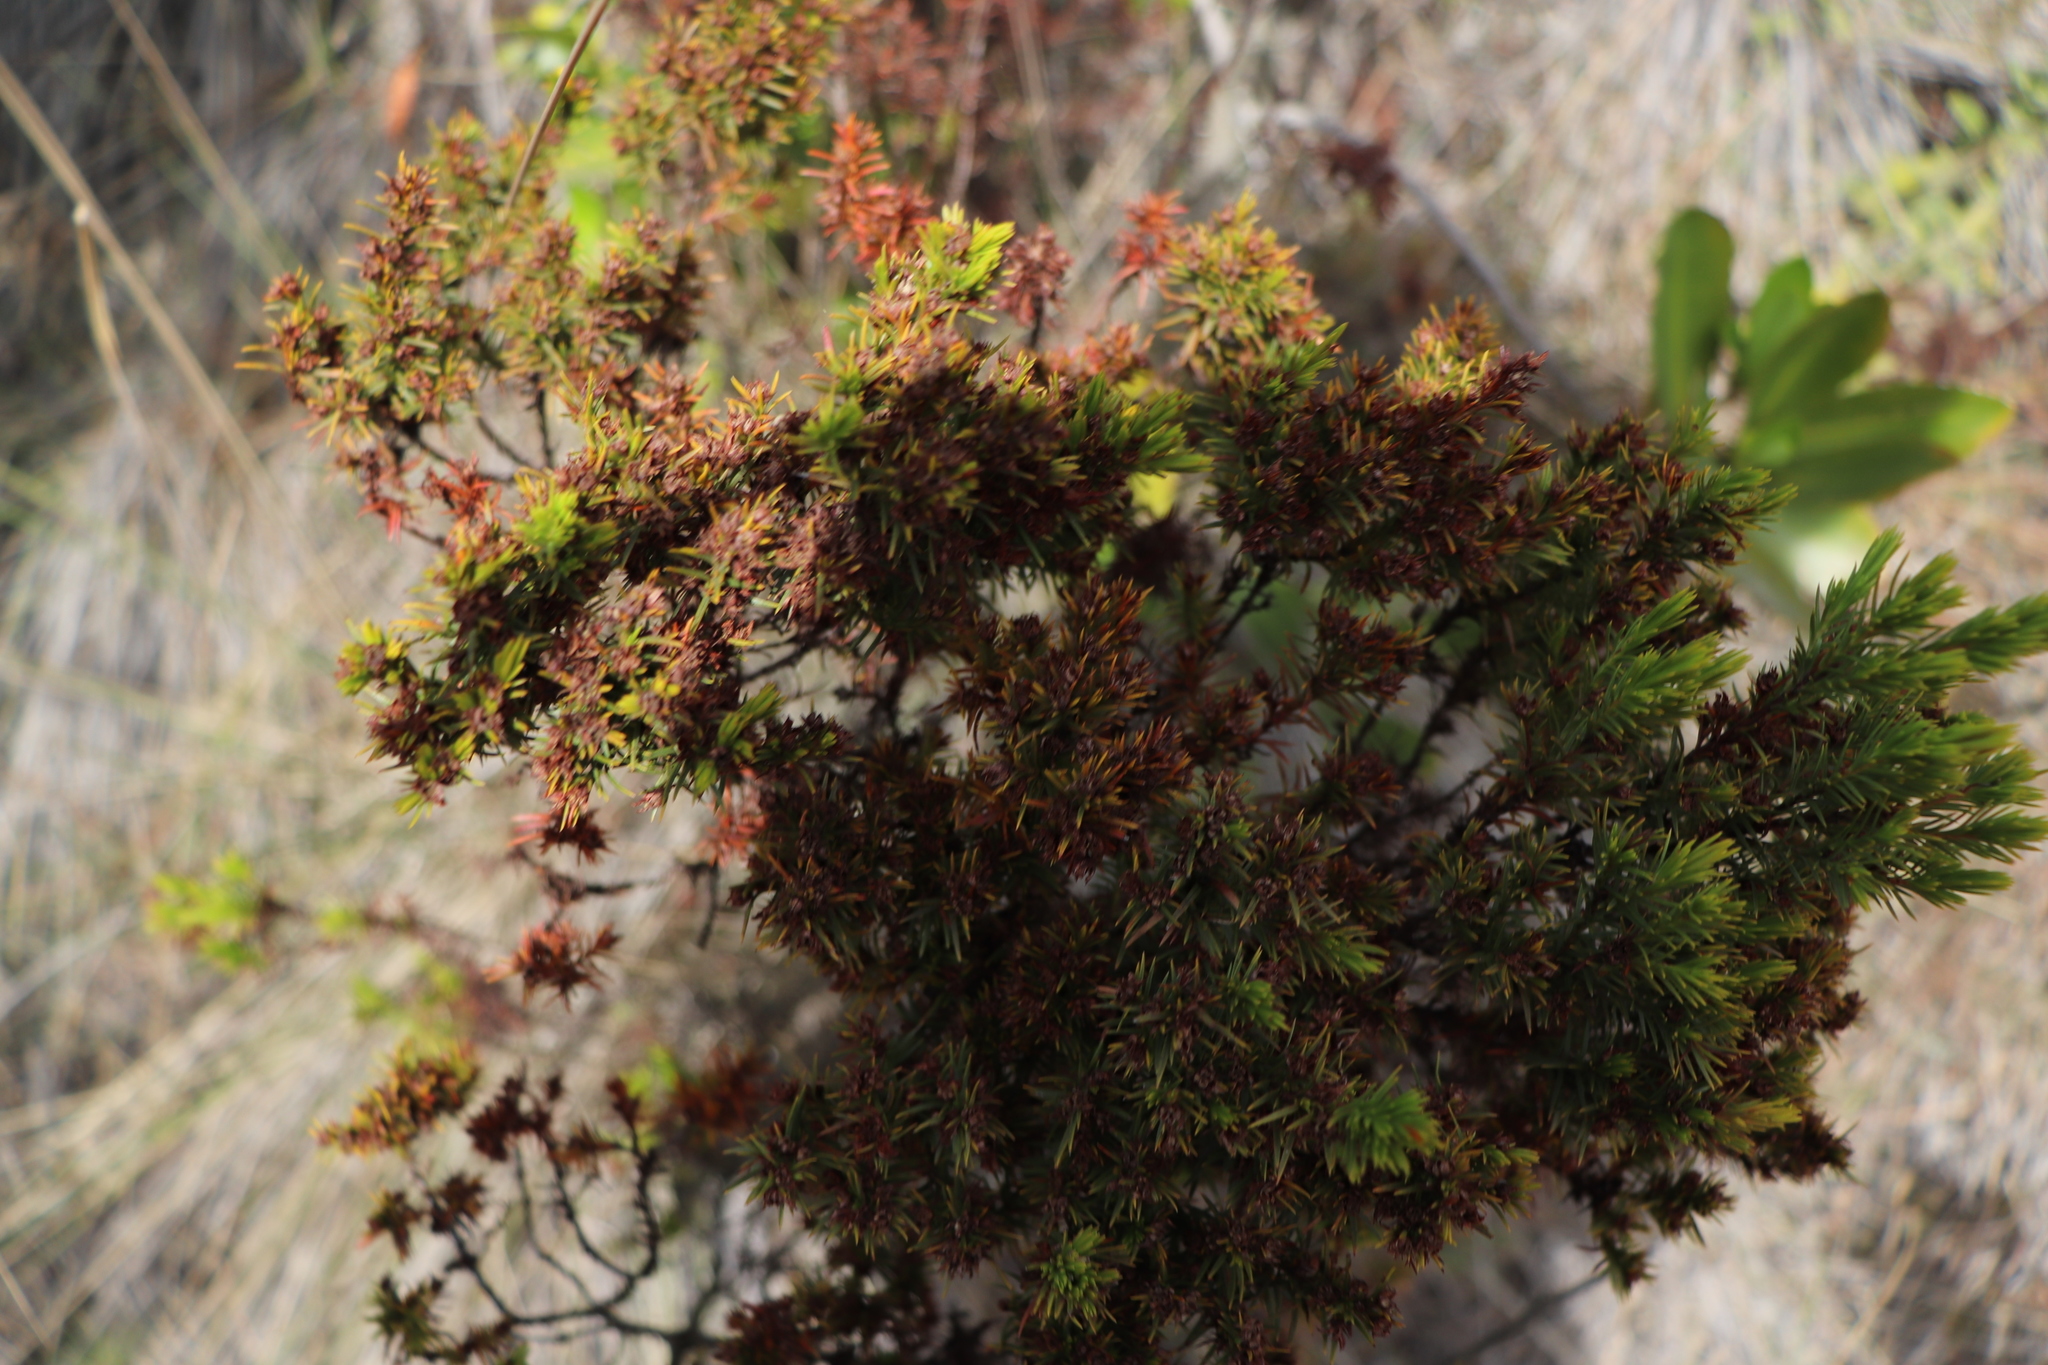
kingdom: Plantae
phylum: Tracheophyta
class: Magnoliopsida
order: Malpighiales
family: Hypericaceae
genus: Hypericum
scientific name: Hypericum juniperinum
